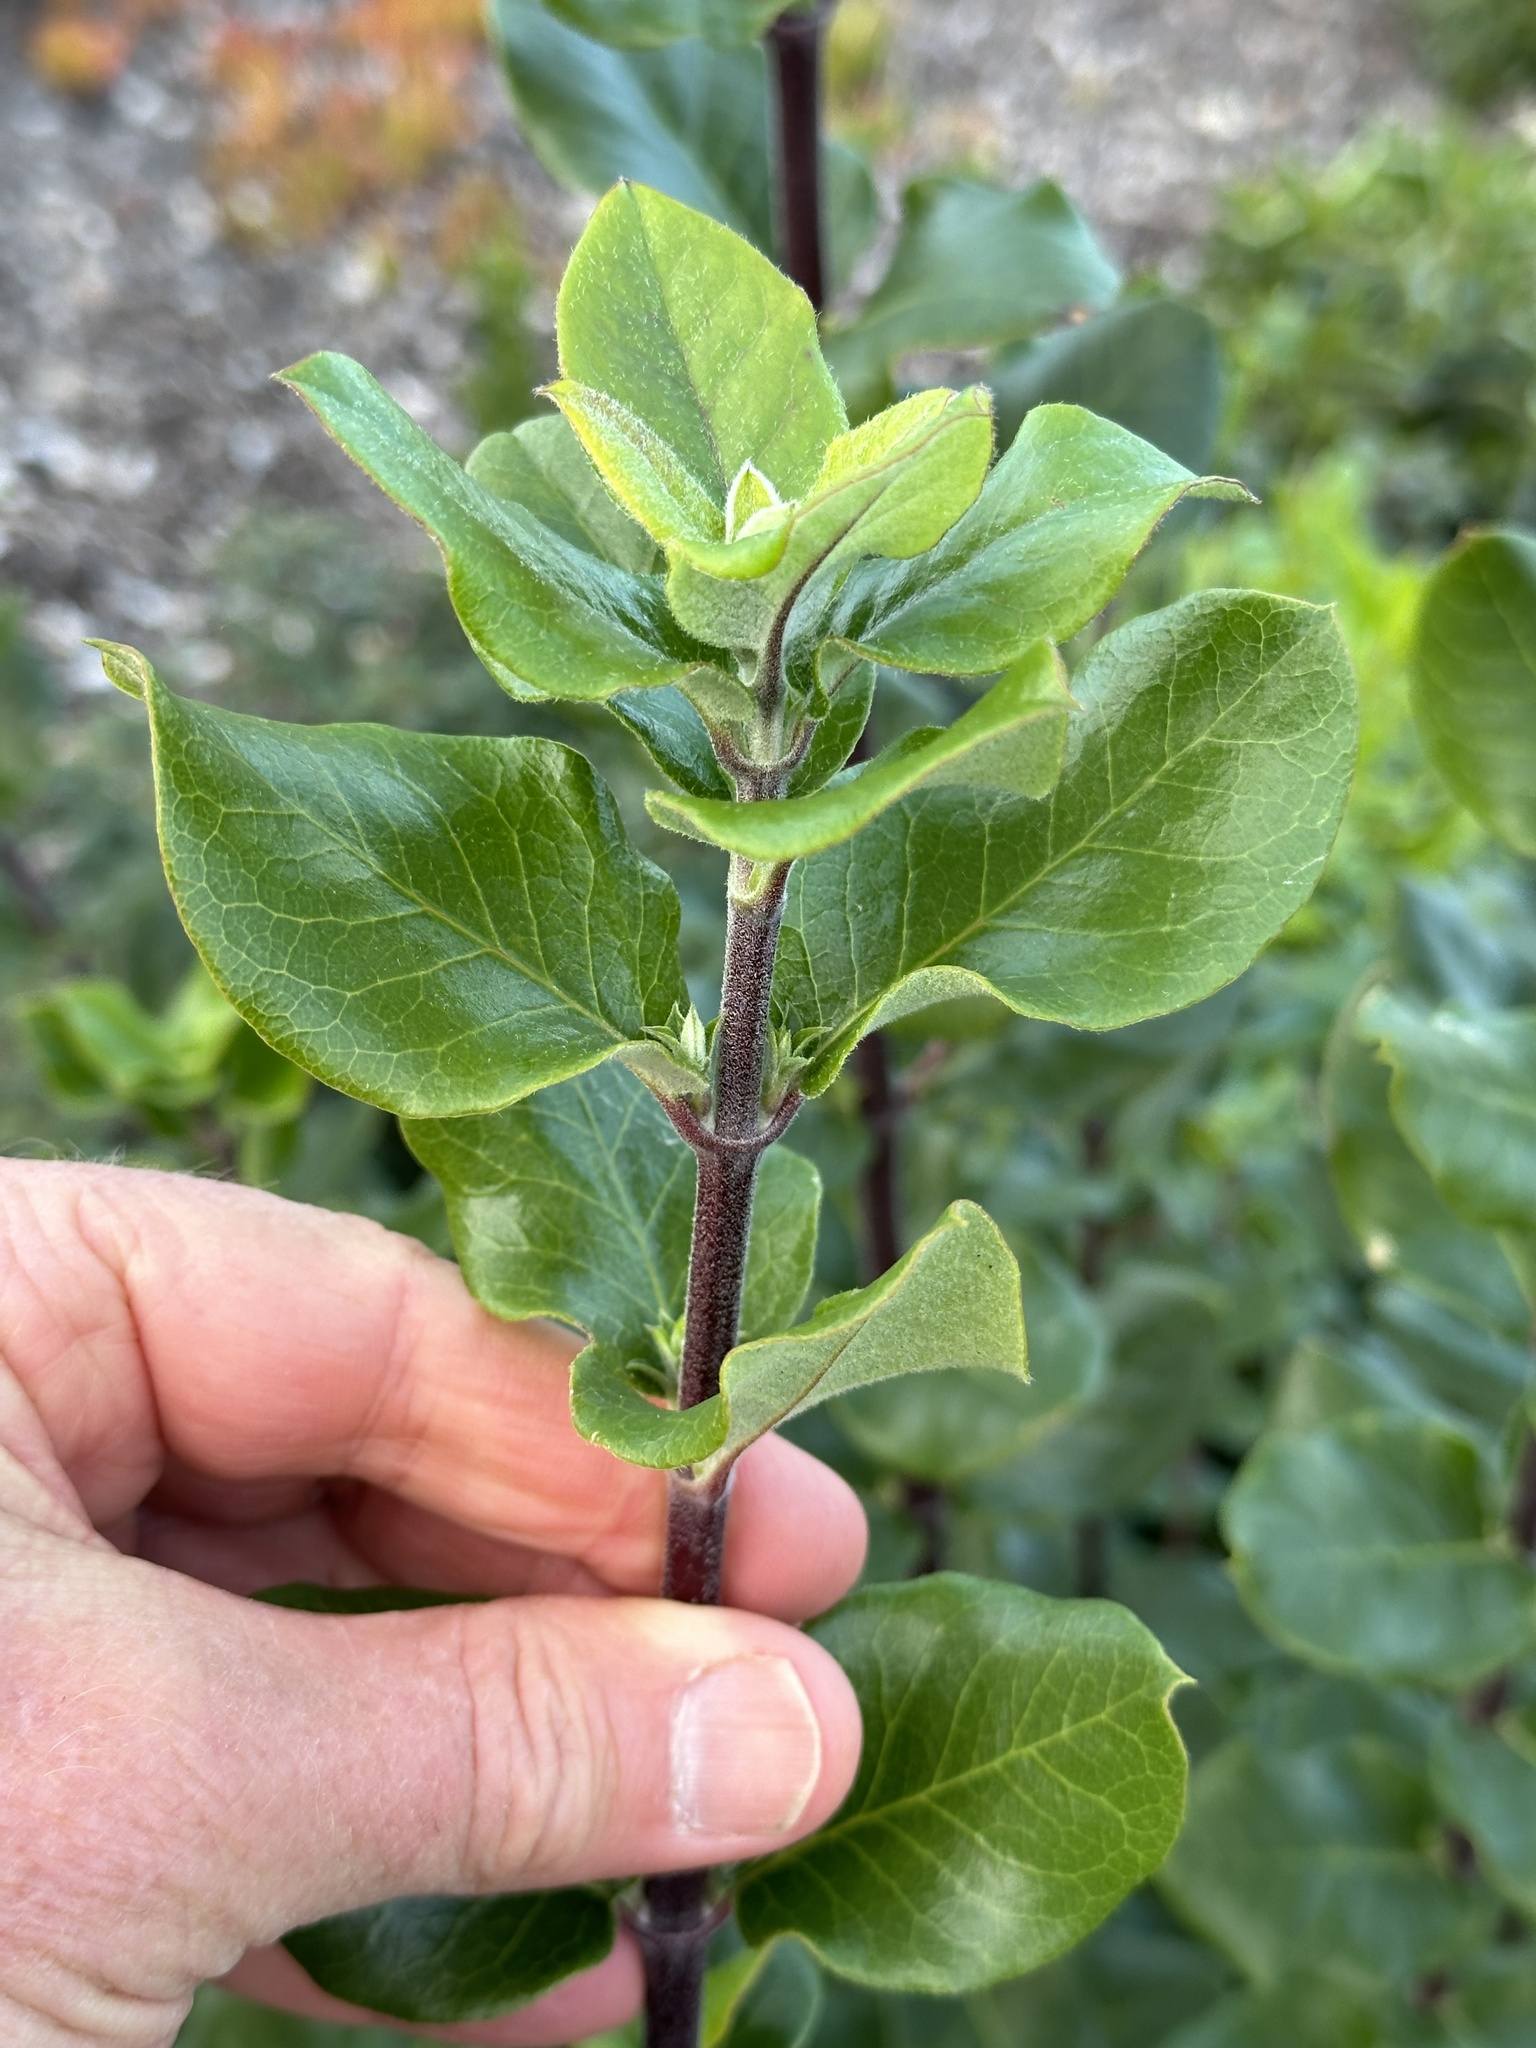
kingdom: Plantae
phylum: Tracheophyta
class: Magnoliopsida
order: Garryales
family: Garryaceae
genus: Garrya
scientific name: Garrya elliptica
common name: Silk-tassel
